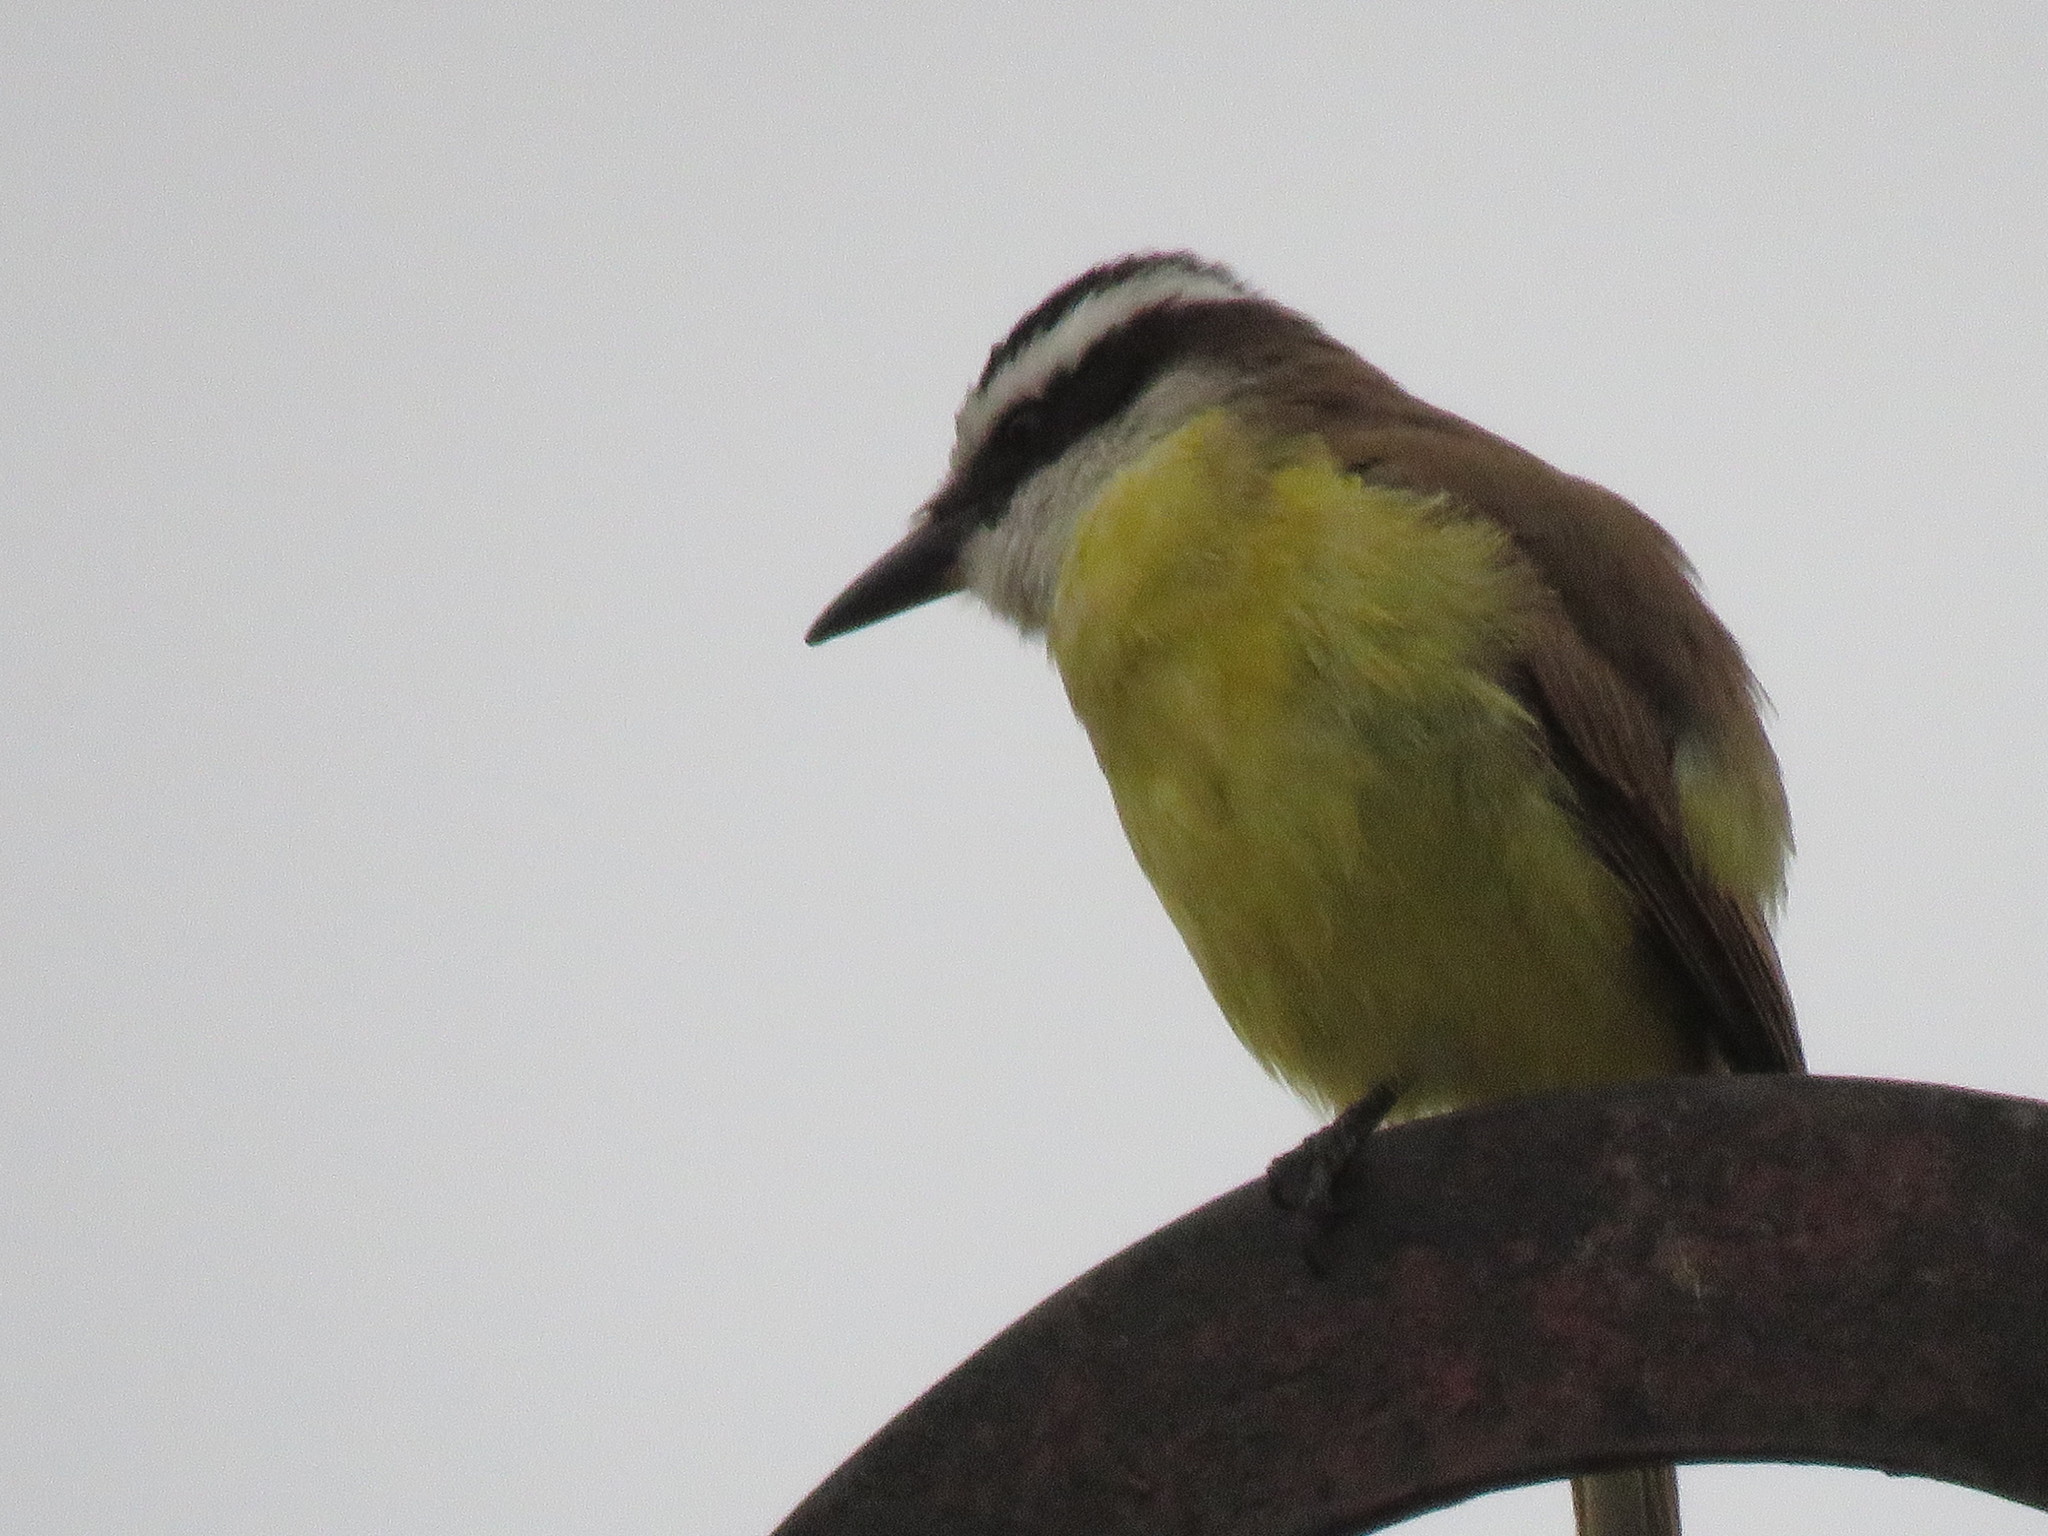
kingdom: Animalia
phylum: Chordata
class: Aves
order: Passeriformes
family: Tyrannidae
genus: Pitangus
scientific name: Pitangus sulphuratus
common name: Great kiskadee
